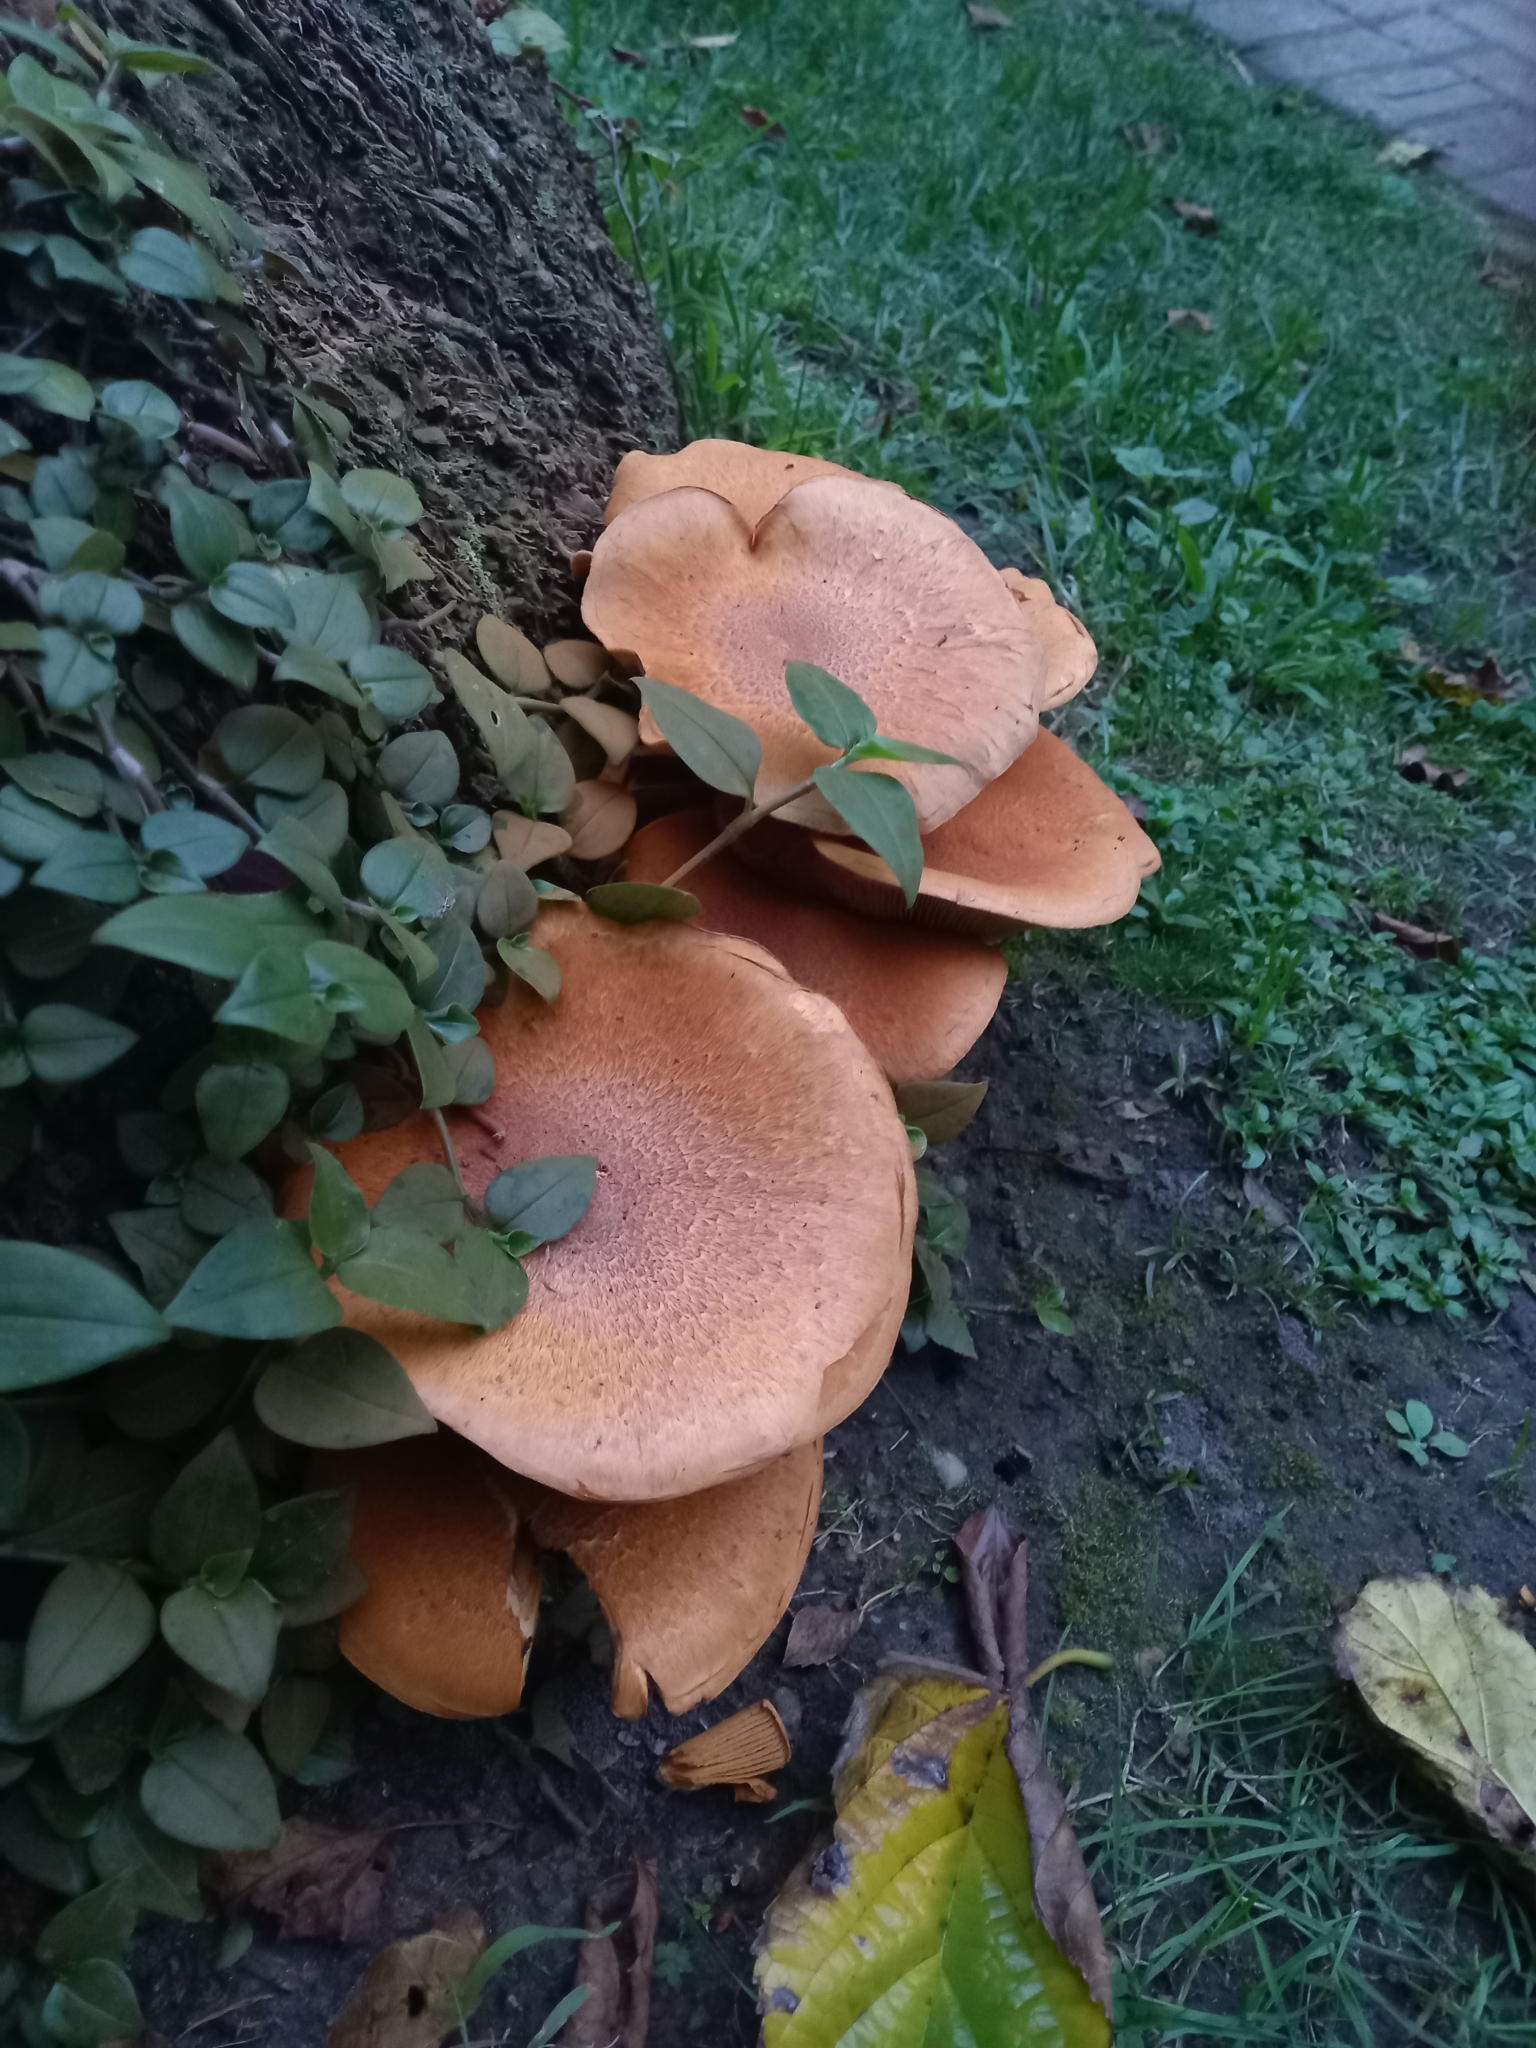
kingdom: Fungi
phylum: Basidiomycota
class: Agaricomycetes
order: Agaricales
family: Hymenogastraceae
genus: Gymnopilus
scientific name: Gymnopilus junonius
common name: Spectacular rustgill
